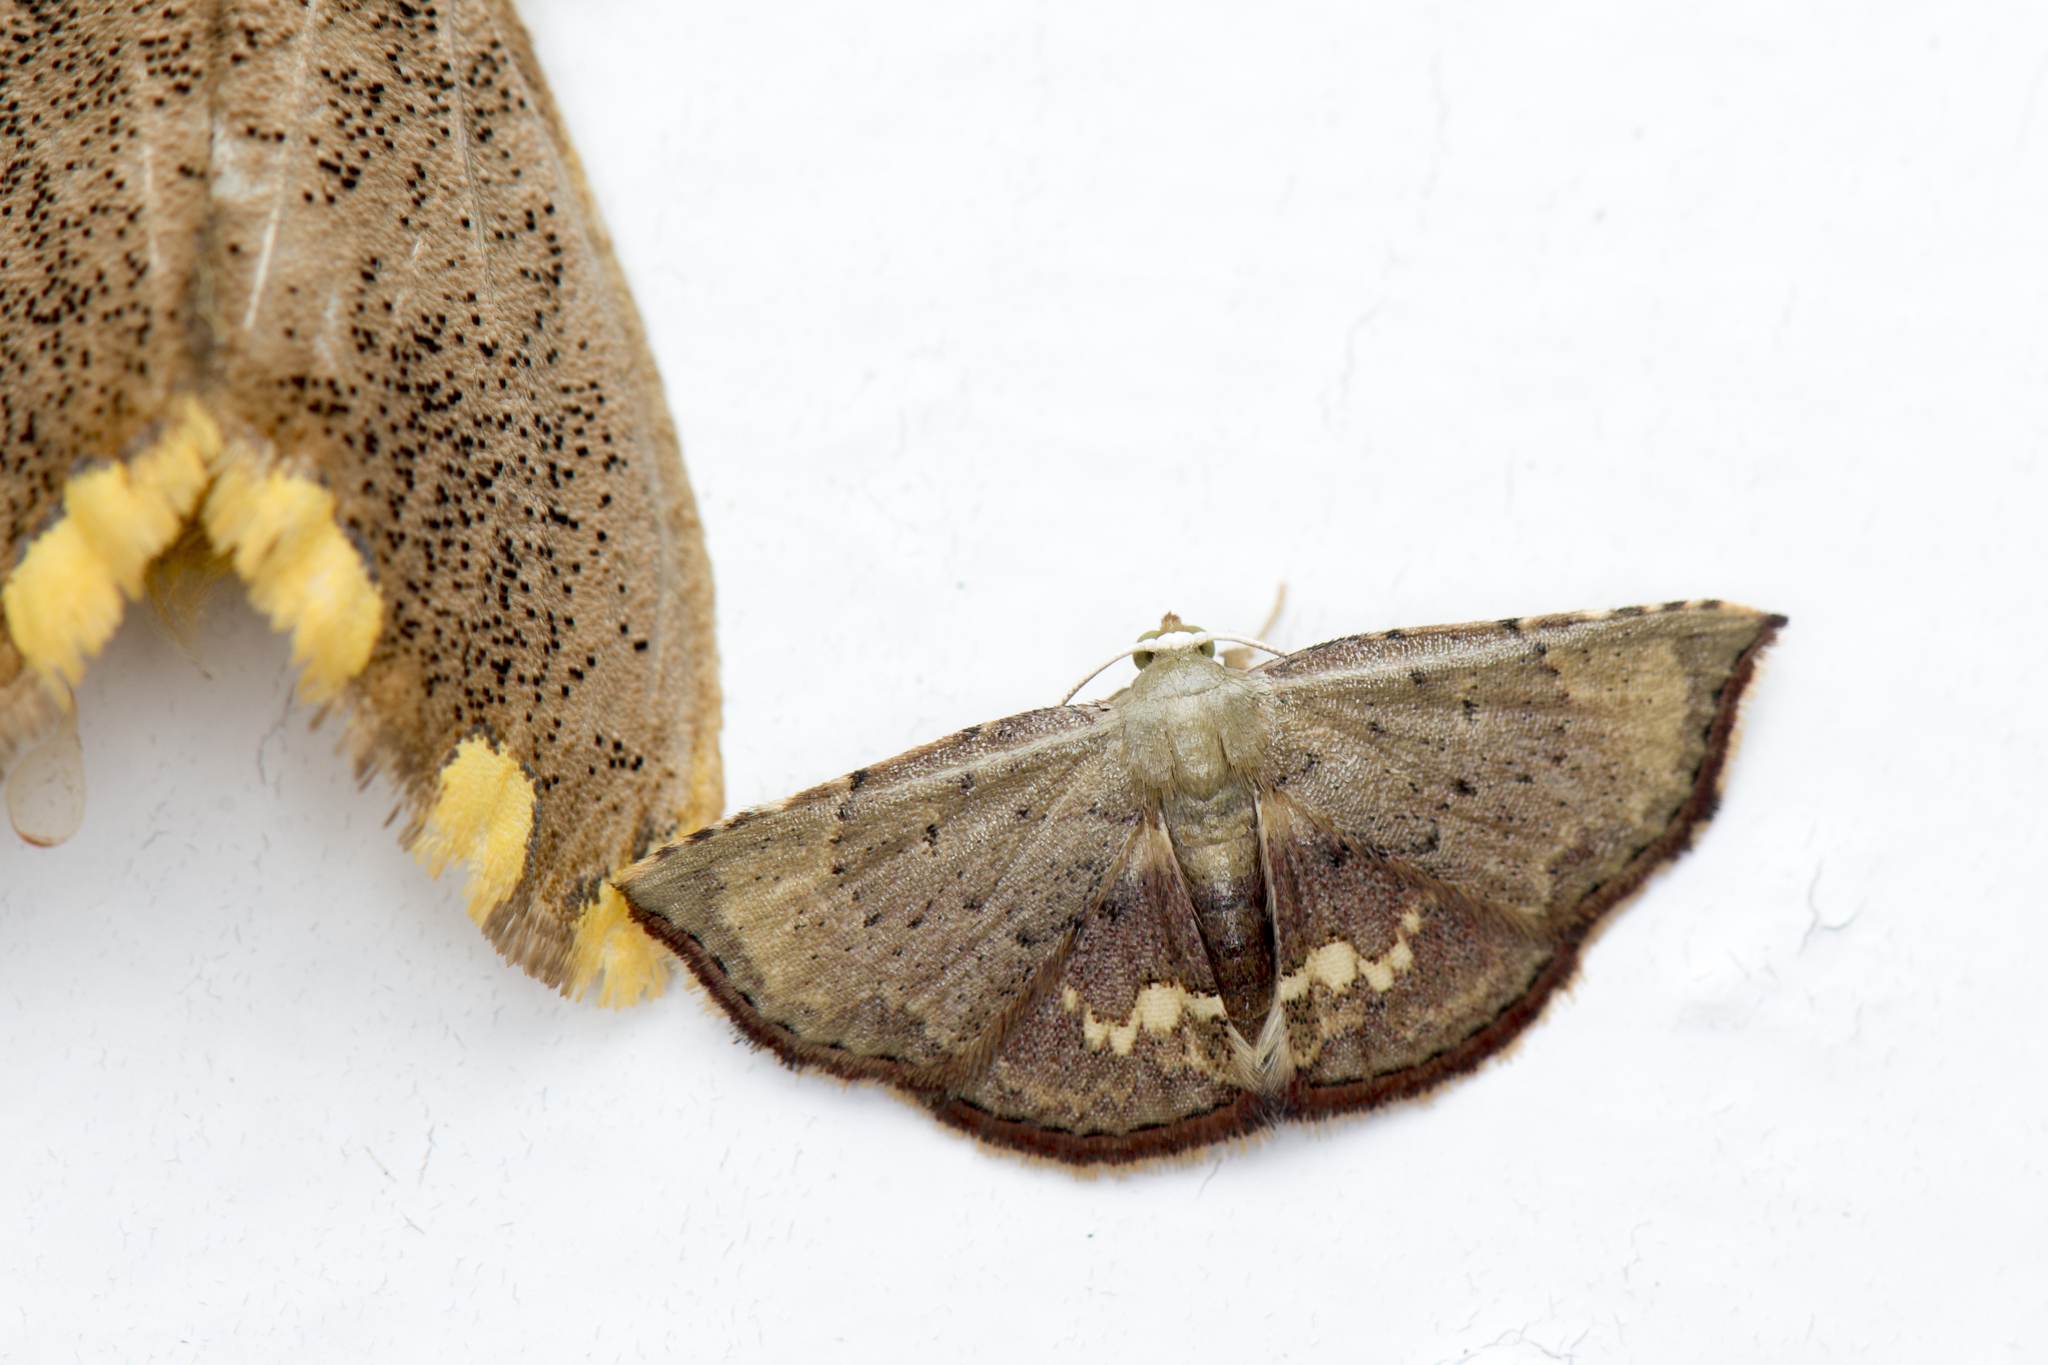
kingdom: Animalia
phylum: Arthropoda
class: Insecta
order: Lepidoptera
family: Noctuidae
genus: Enispa
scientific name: Enispa vinacea
